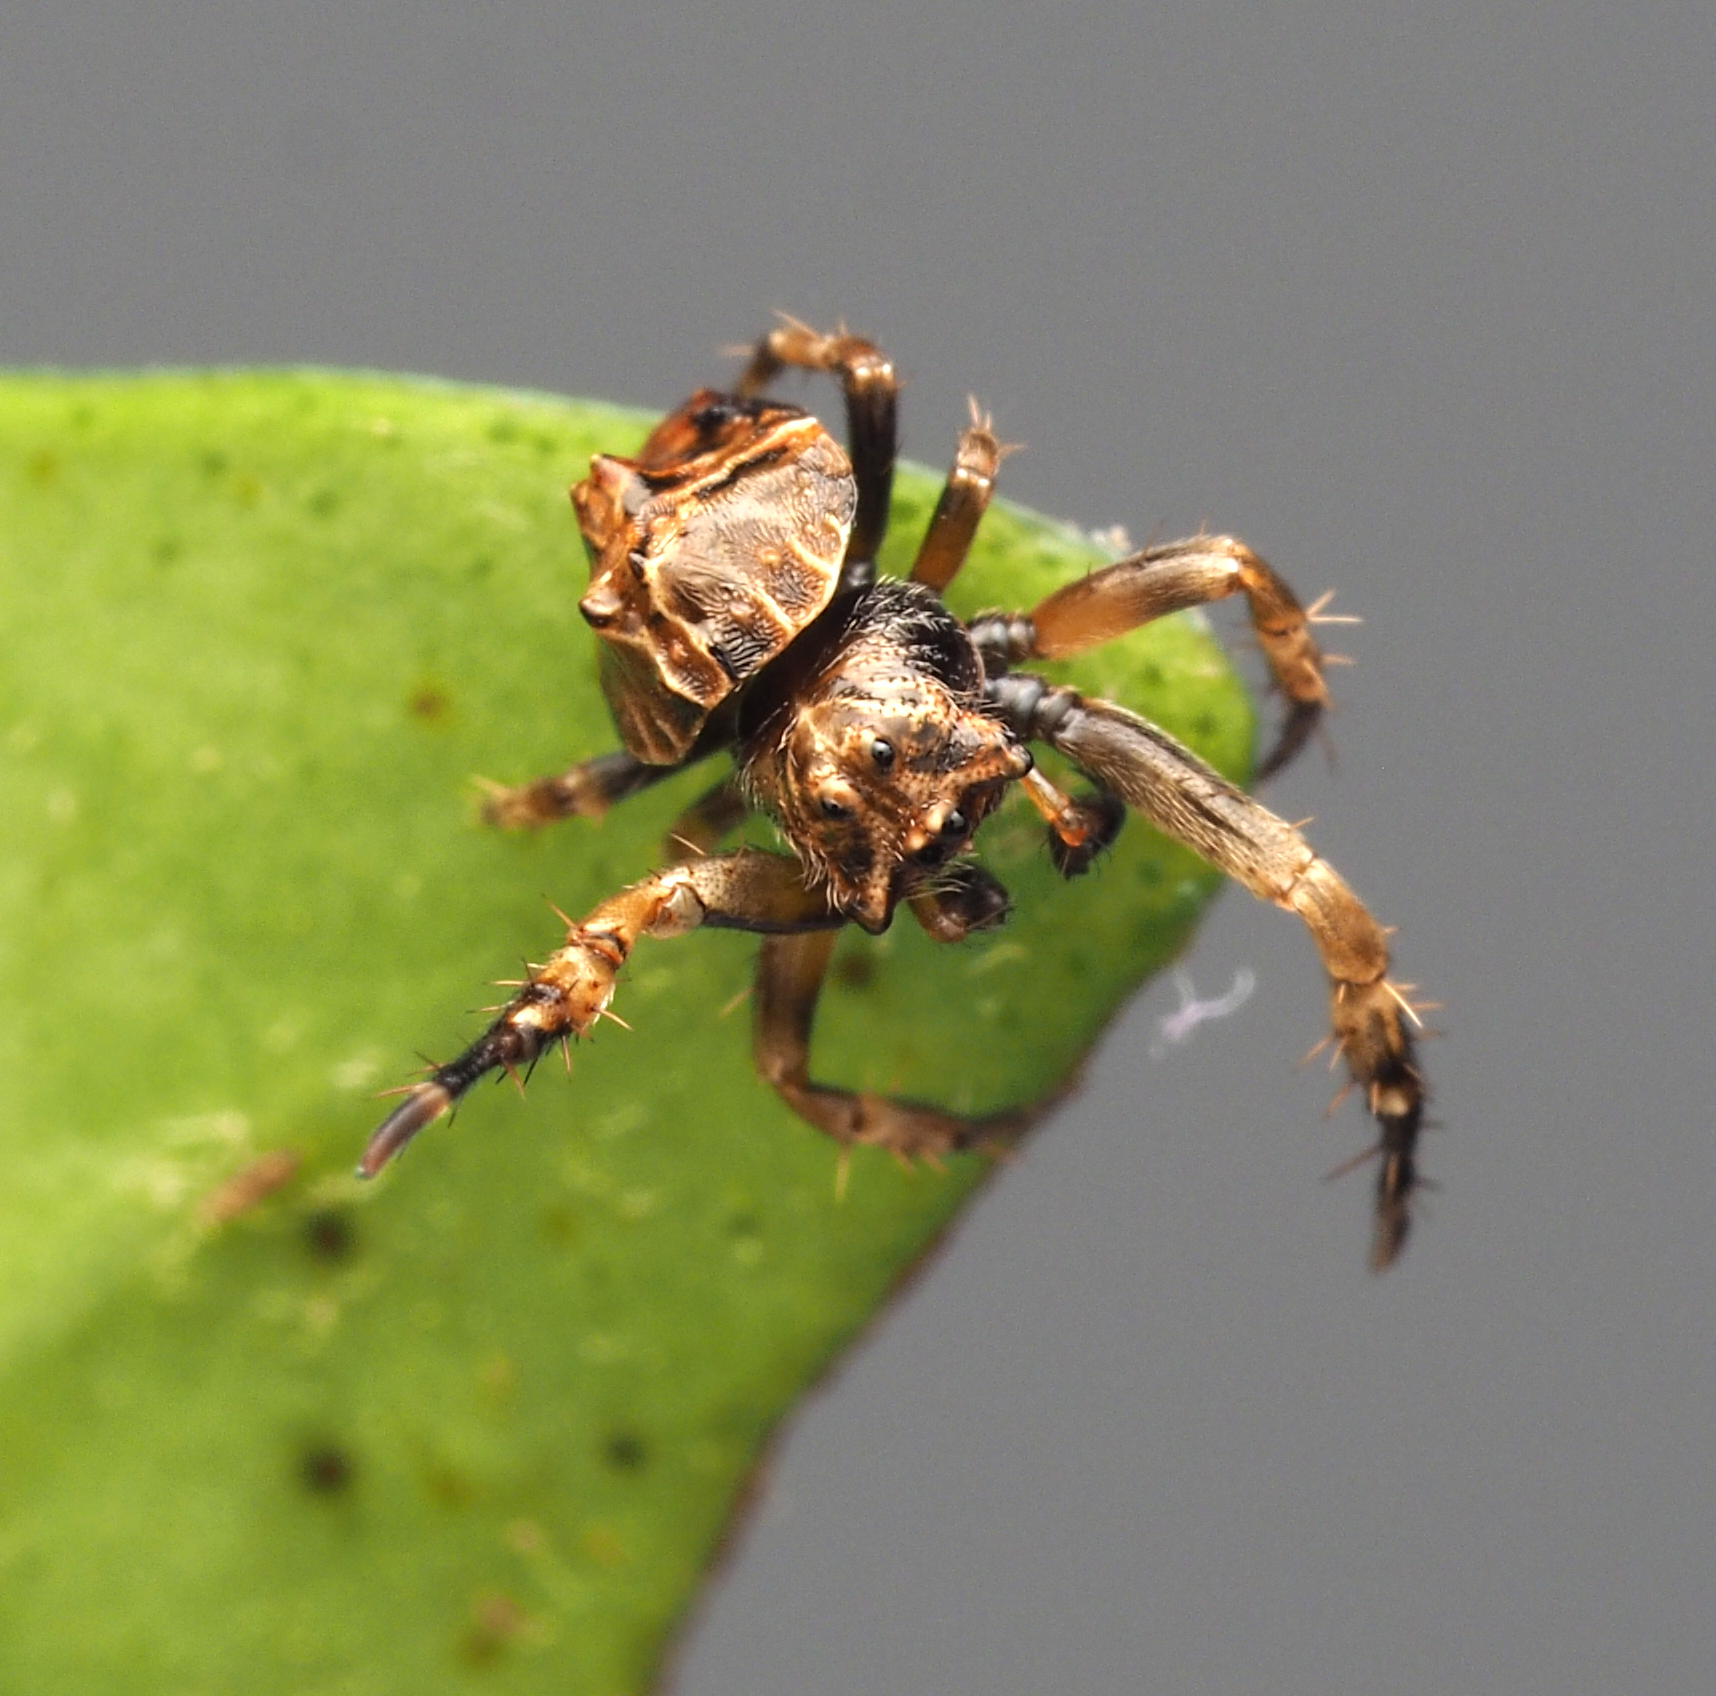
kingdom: Animalia
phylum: Arthropoda
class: Arachnida
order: Araneae
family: Arkyidae
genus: Arkys
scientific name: Arkys tuberculatus
